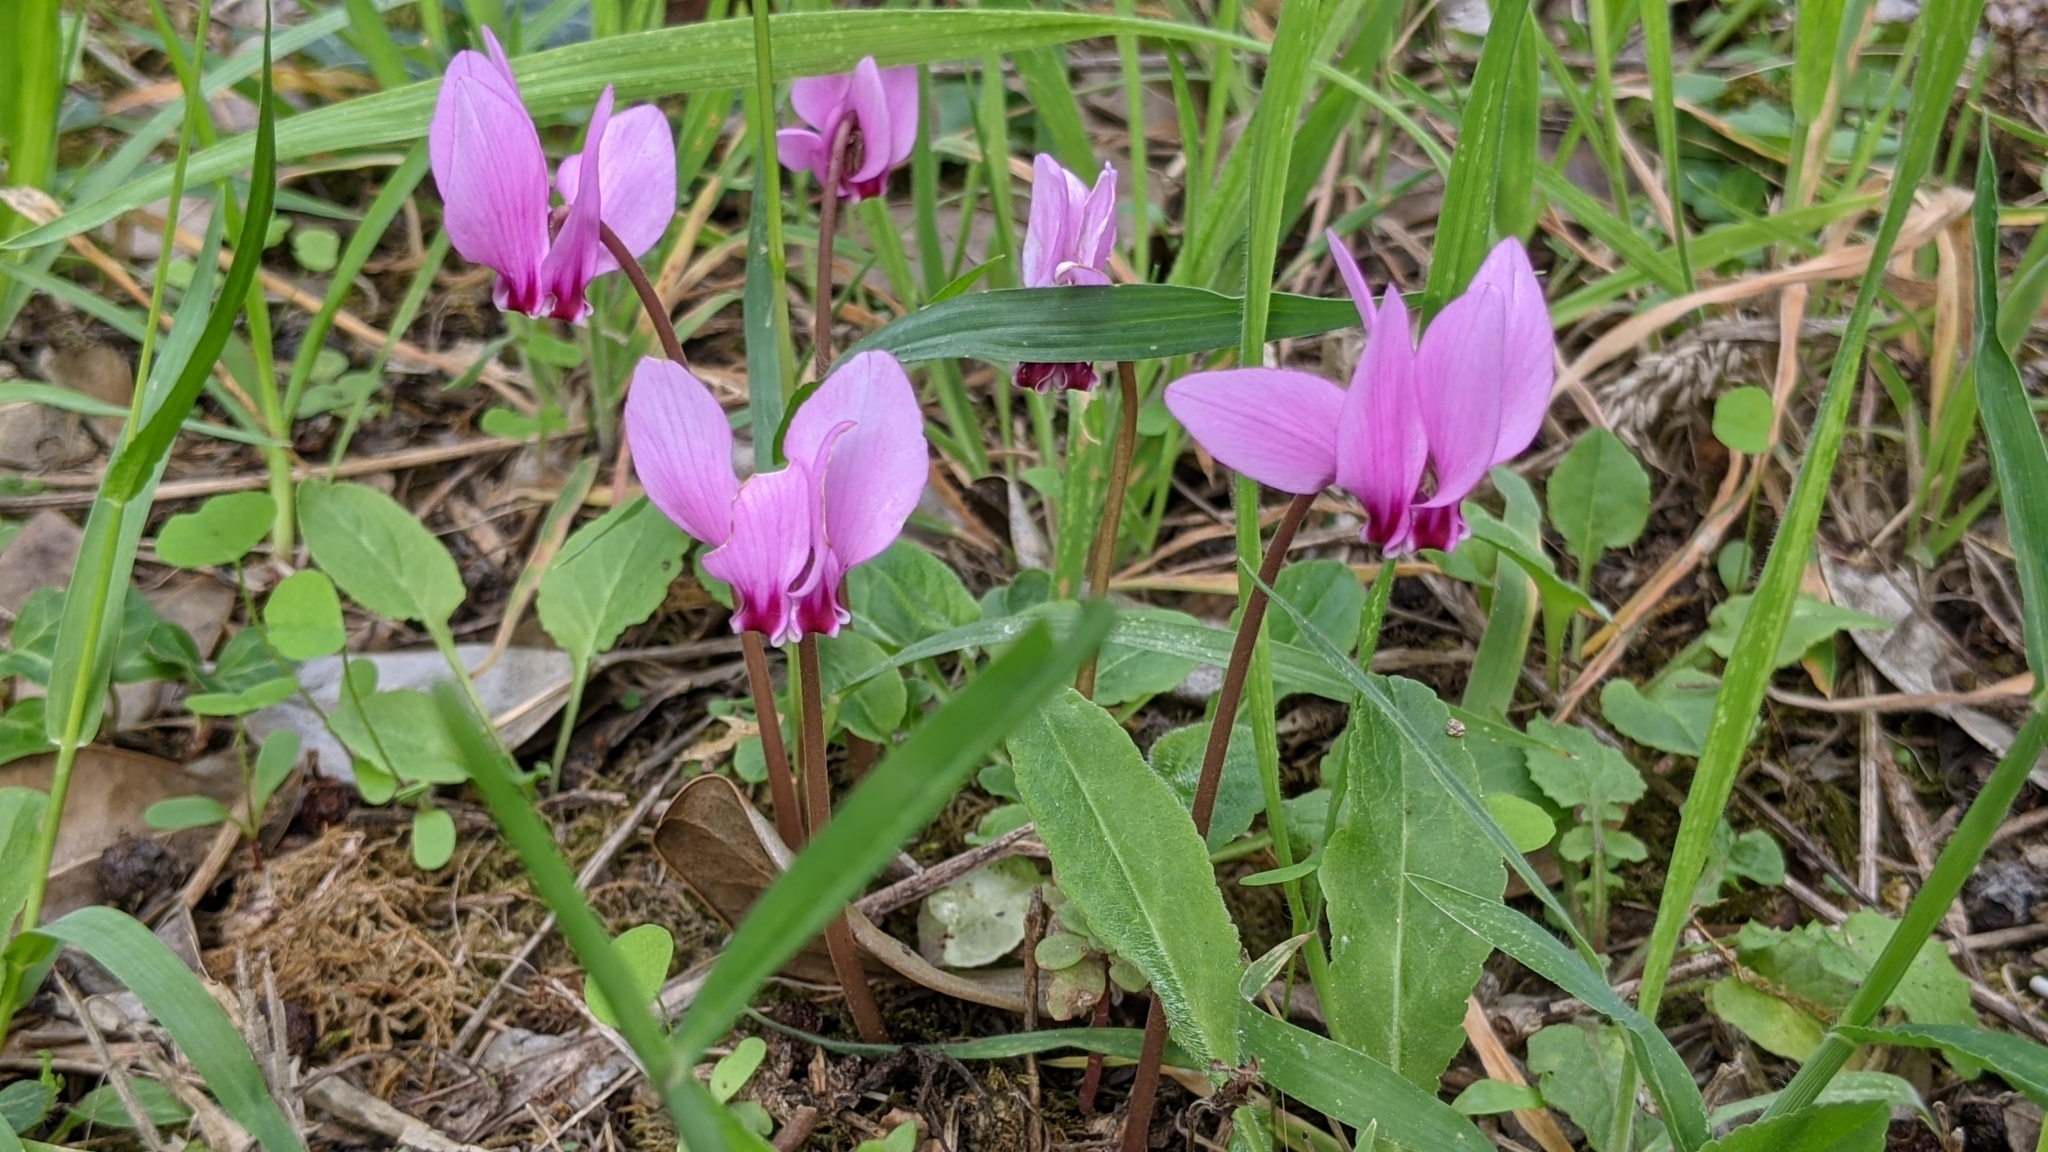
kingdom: Plantae
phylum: Tracheophyta
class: Magnoliopsida
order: Ericales
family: Primulaceae
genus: Cyclamen
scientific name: Cyclamen hederifolium
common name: Sowbread
